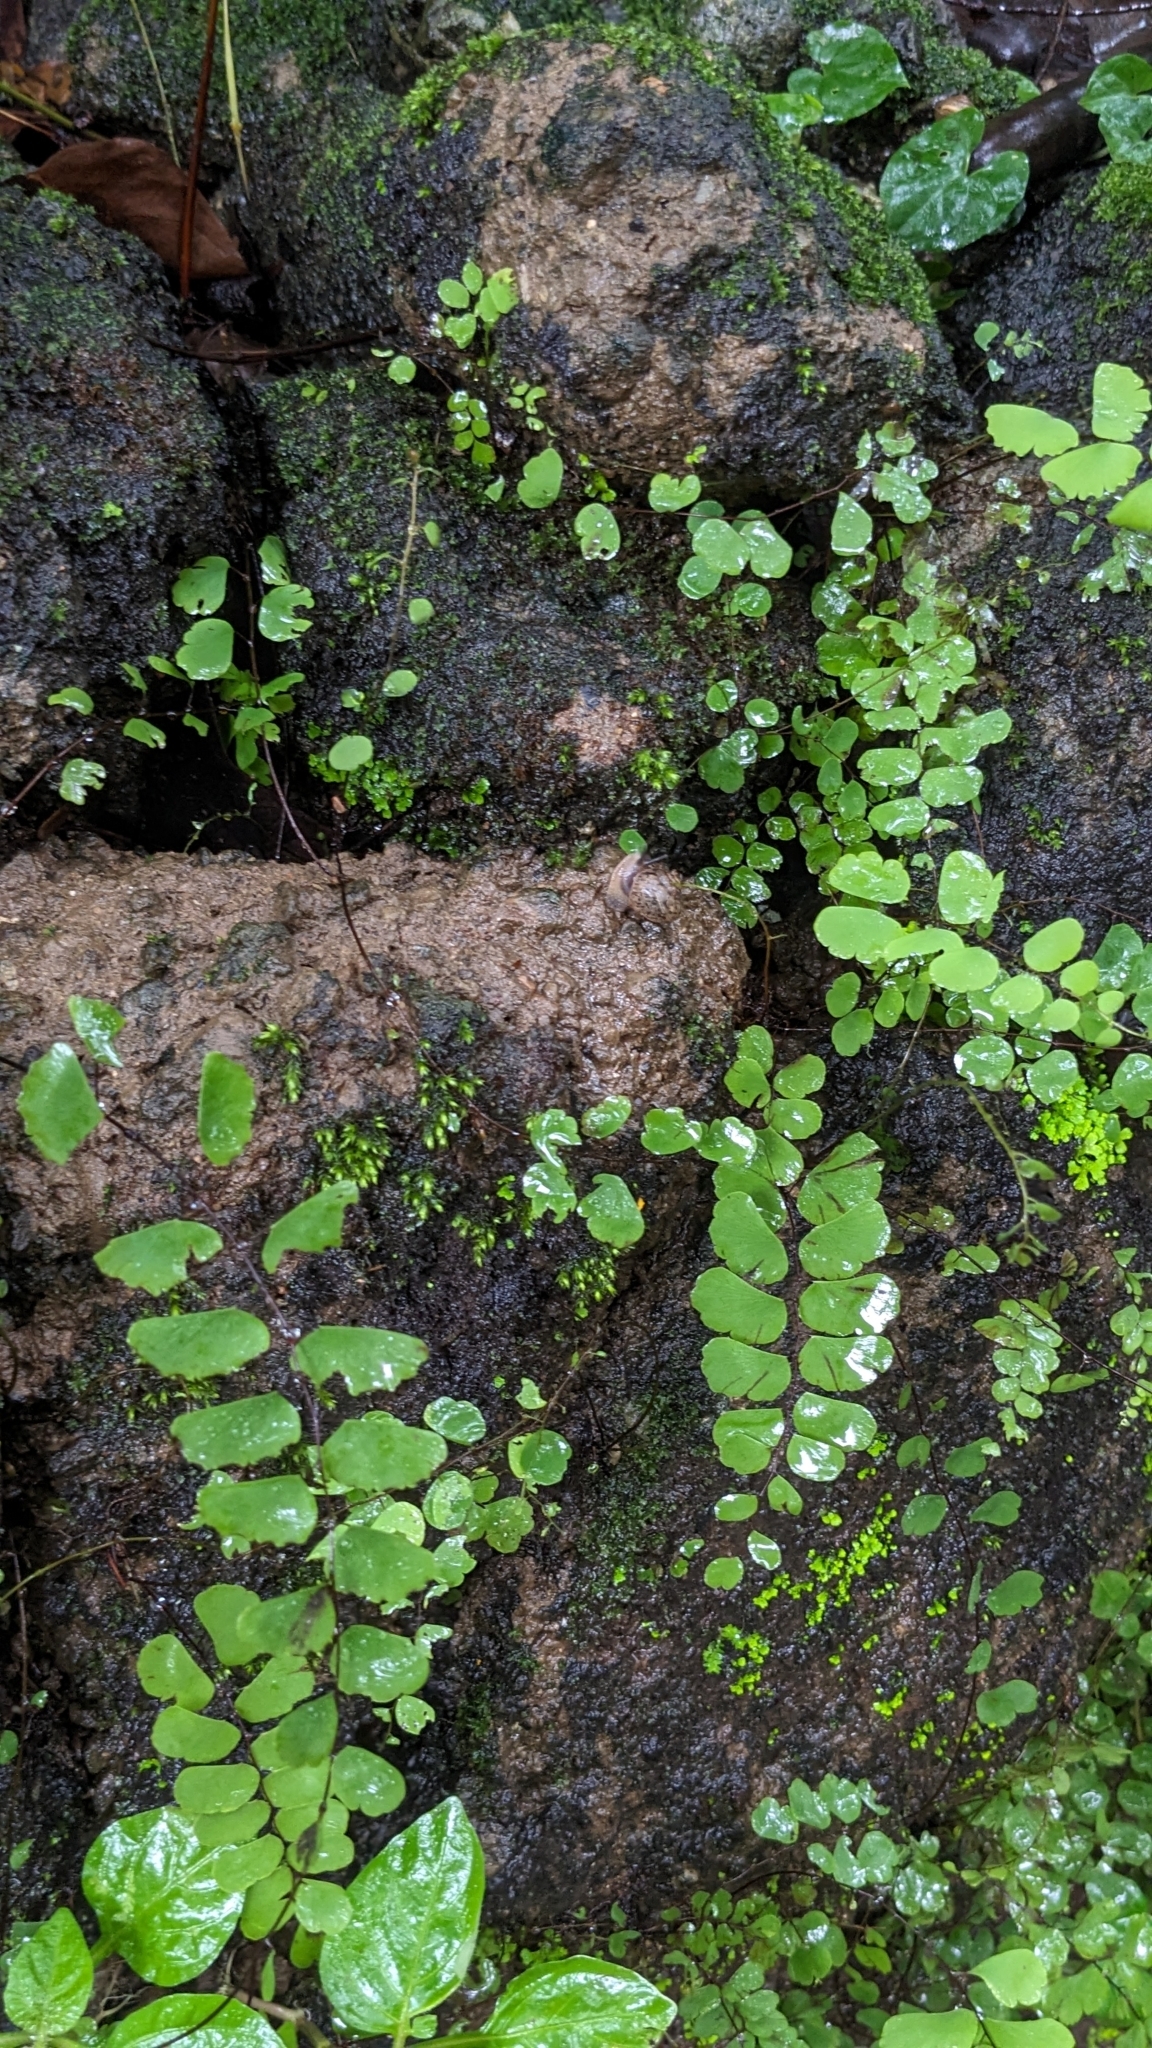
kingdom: Plantae
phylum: Tracheophyta
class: Polypodiopsida
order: Polypodiales
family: Pteridaceae
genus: Adiantum
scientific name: Adiantum philippense
